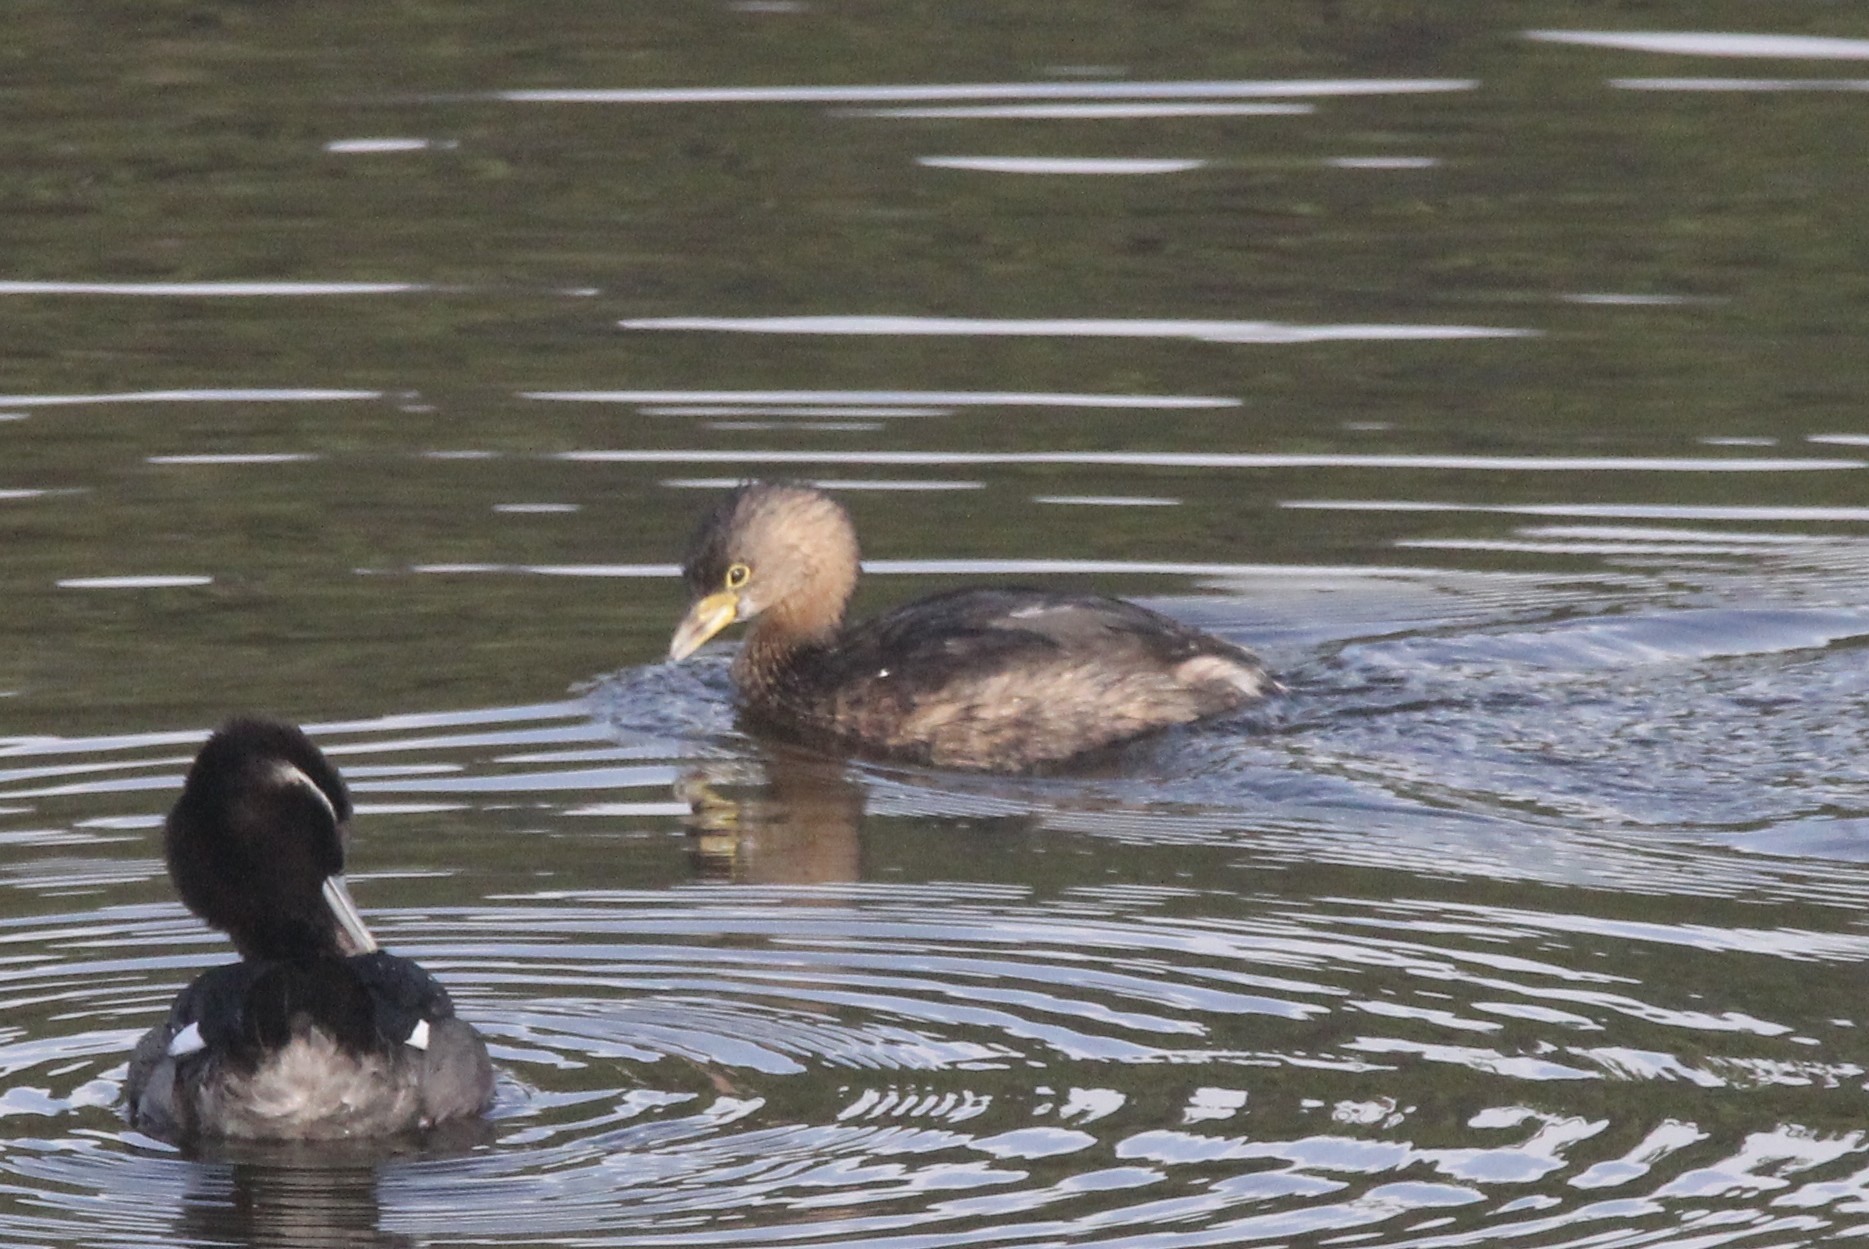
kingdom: Animalia
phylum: Chordata
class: Aves
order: Podicipediformes
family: Podicipedidae
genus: Podilymbus
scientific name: Podilymbus podiceps
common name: Pied-billed grebe
